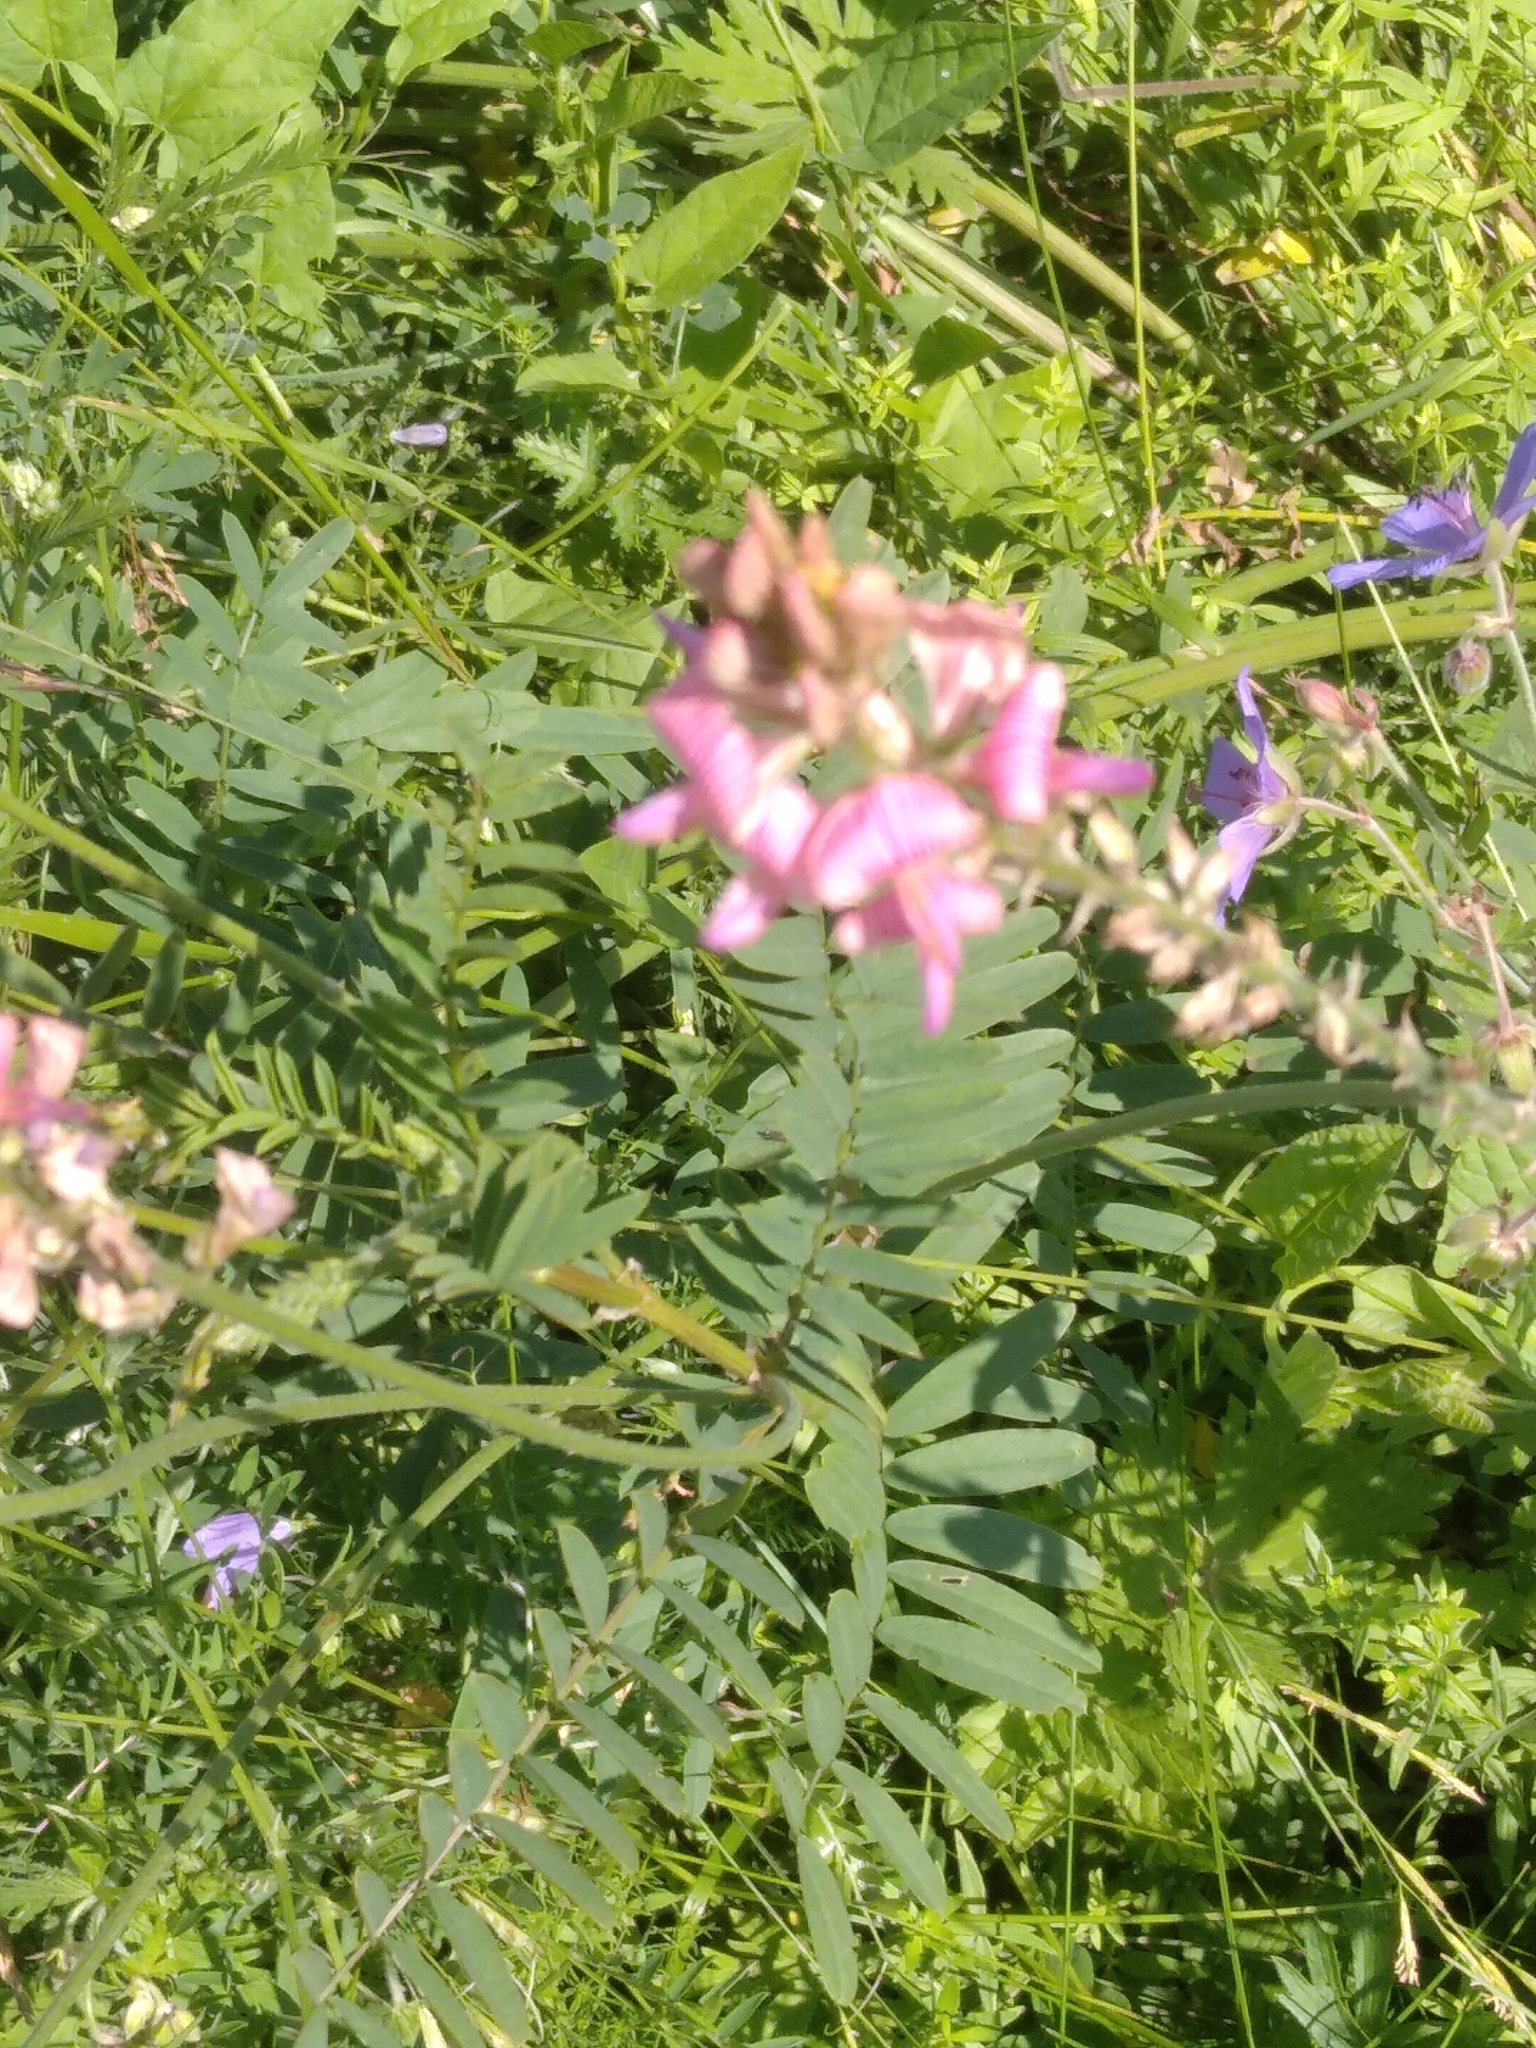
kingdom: Plantae
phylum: Tracheophyta
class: Magnoliopsida
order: Fabales
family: Fabaceae
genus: Onobrychis
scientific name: Onobrychis viciifolia
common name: Sainfoin
